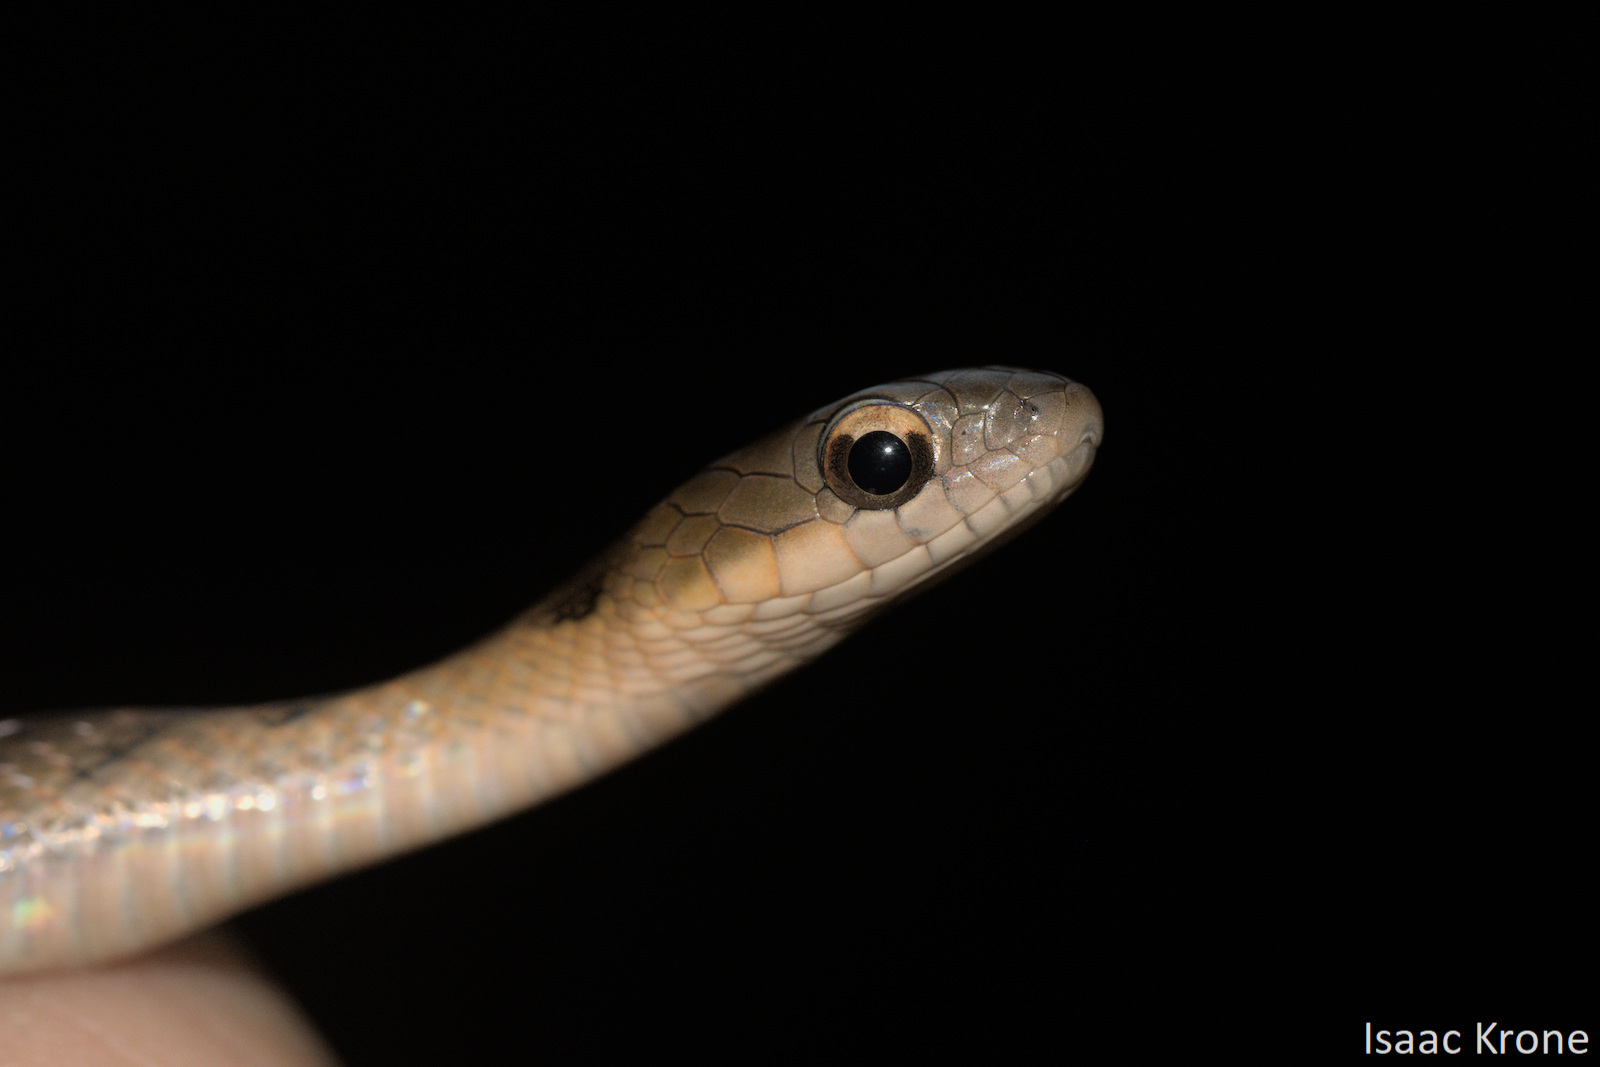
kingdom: Animalia
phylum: Chordata
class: Squamata
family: Colubridae
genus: Erythrolamprus
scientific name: Erythrolamprus typhlus
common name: Blind ground snake
